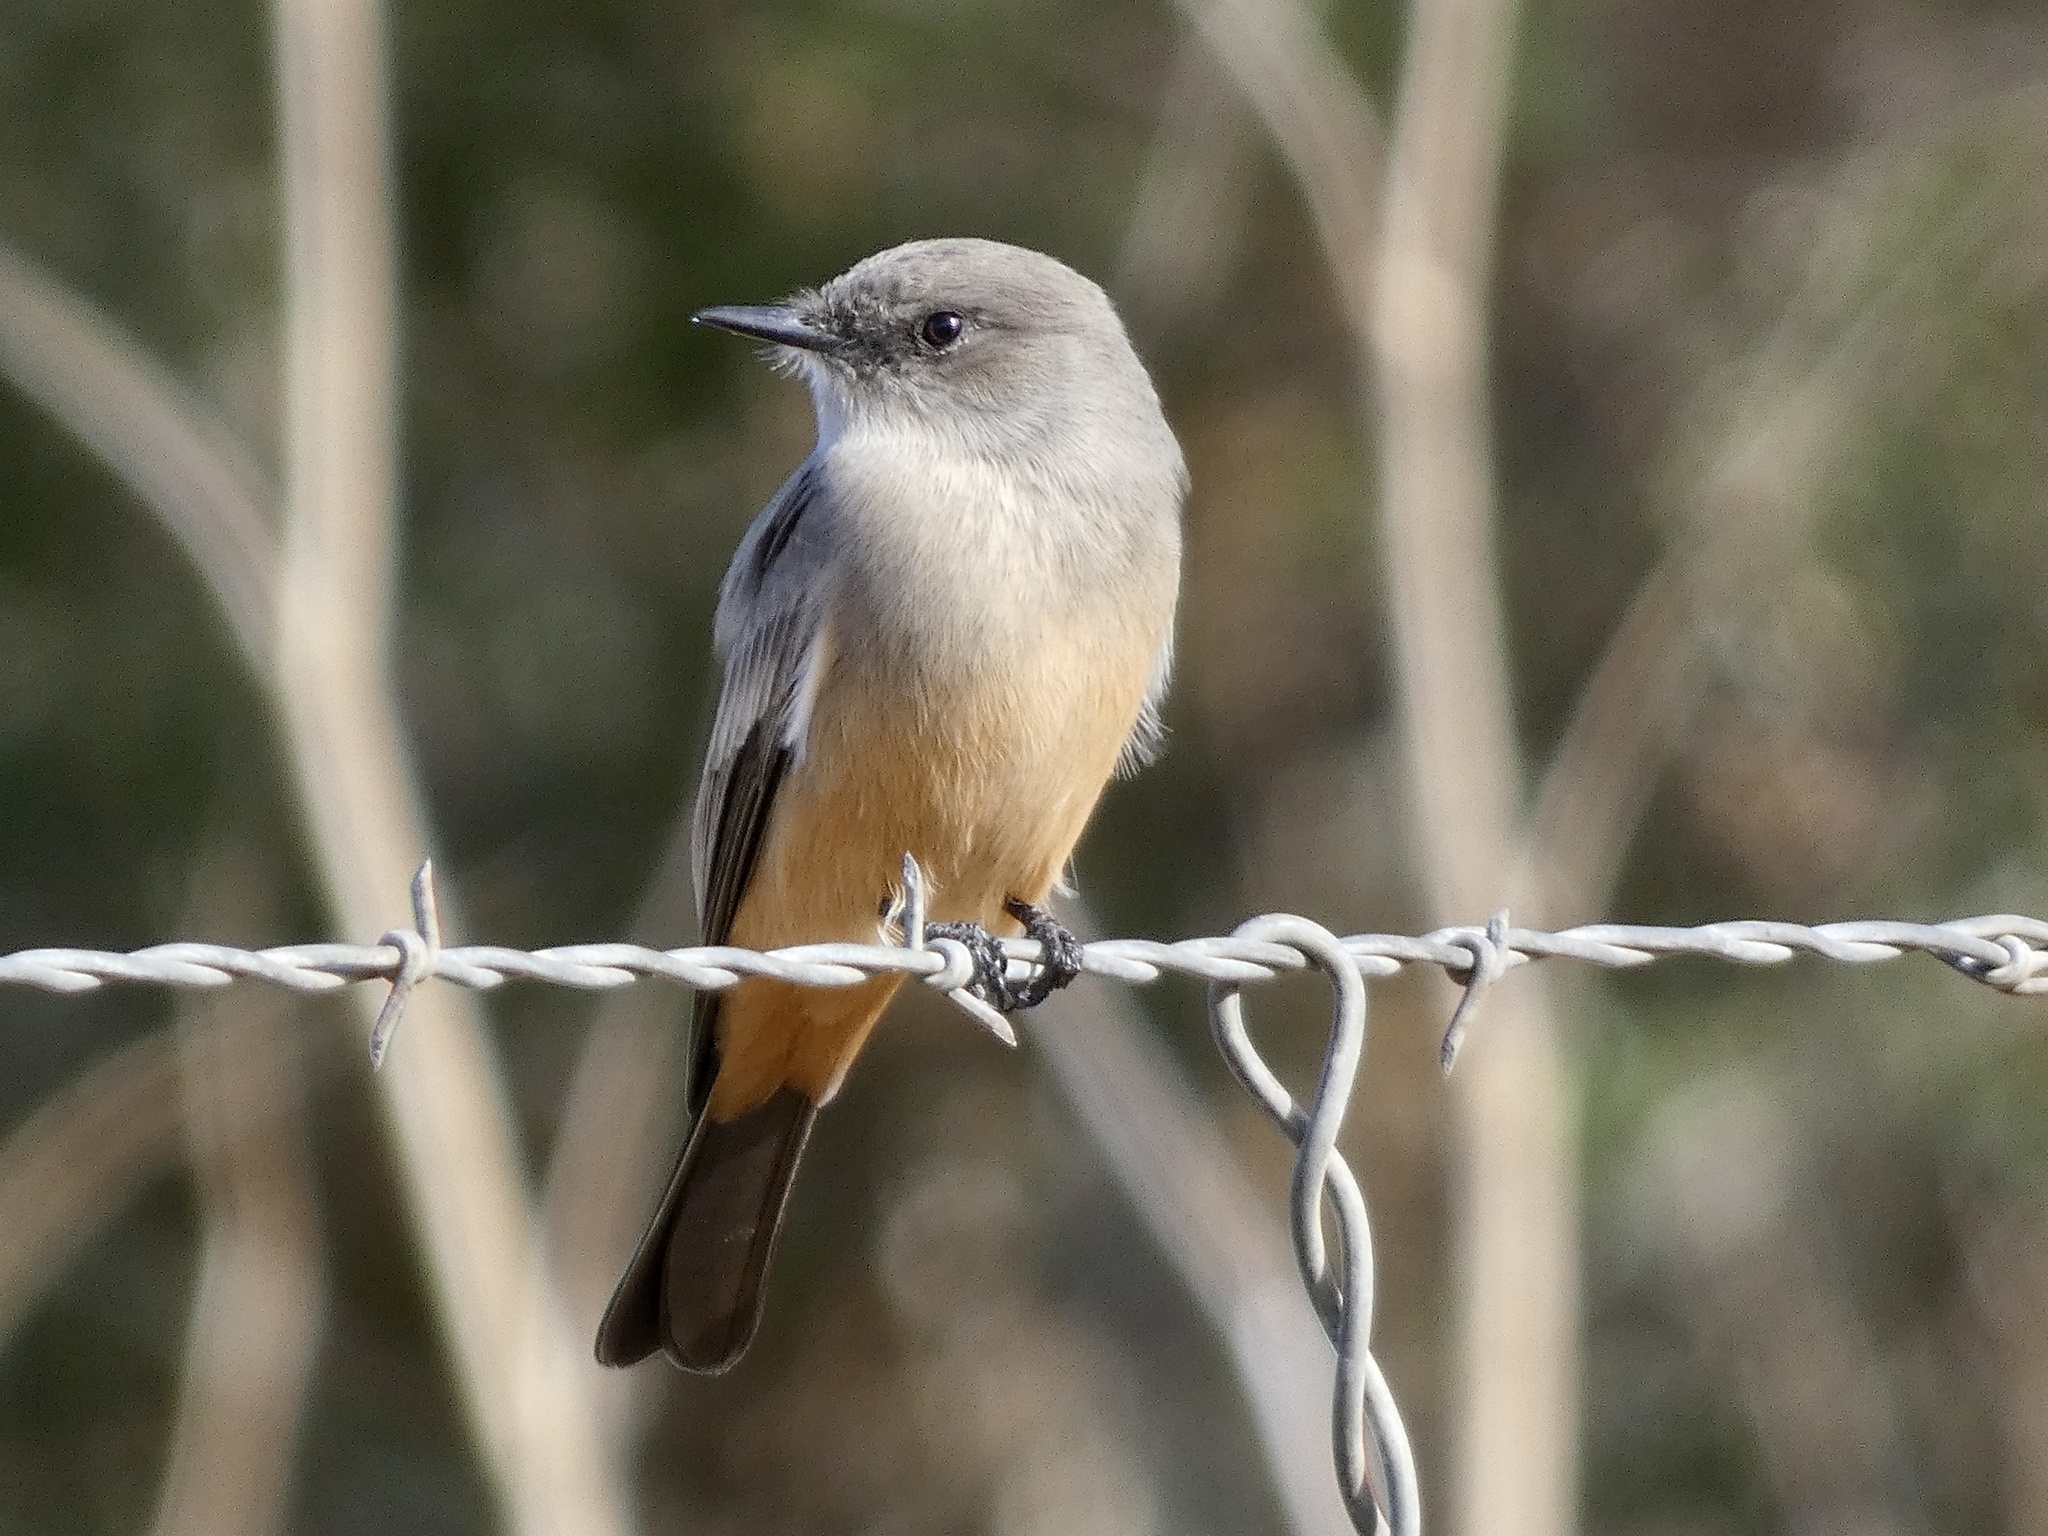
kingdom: Animalia
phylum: Chordata
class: Aves
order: Passeriformes
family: Tyrannidae
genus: Sayornis
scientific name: Sayornis saya
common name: Say's phoebe
